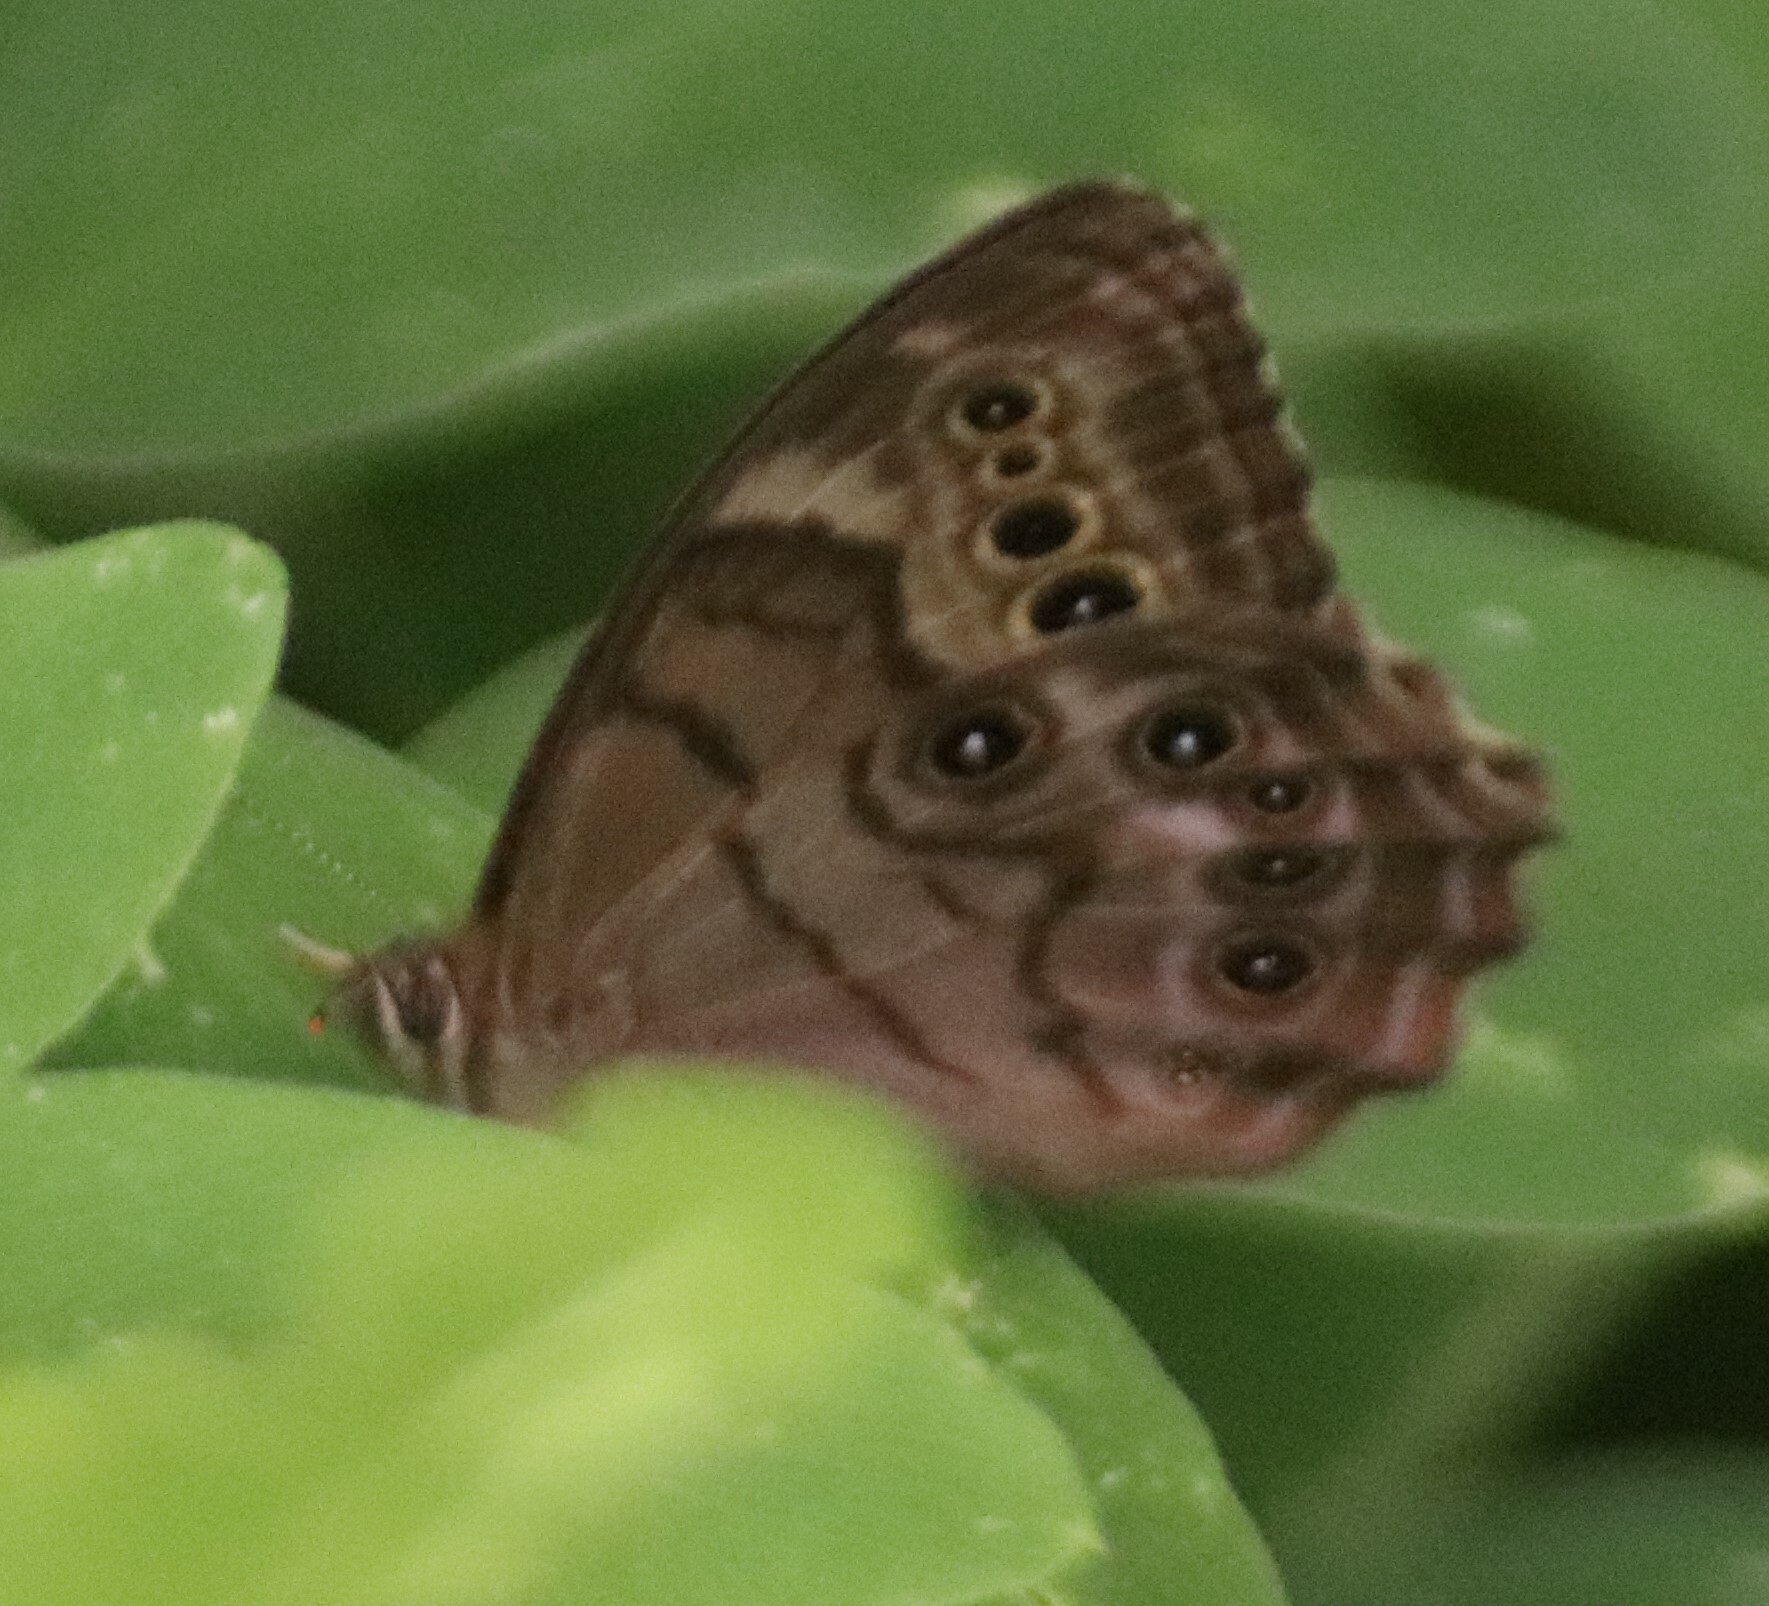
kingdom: Animalia
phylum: Arthropoda
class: Insecta
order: Lepidoptera
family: Nymphalidae
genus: Lethe
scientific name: Lethe anthedon
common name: Northern pearly-eye
